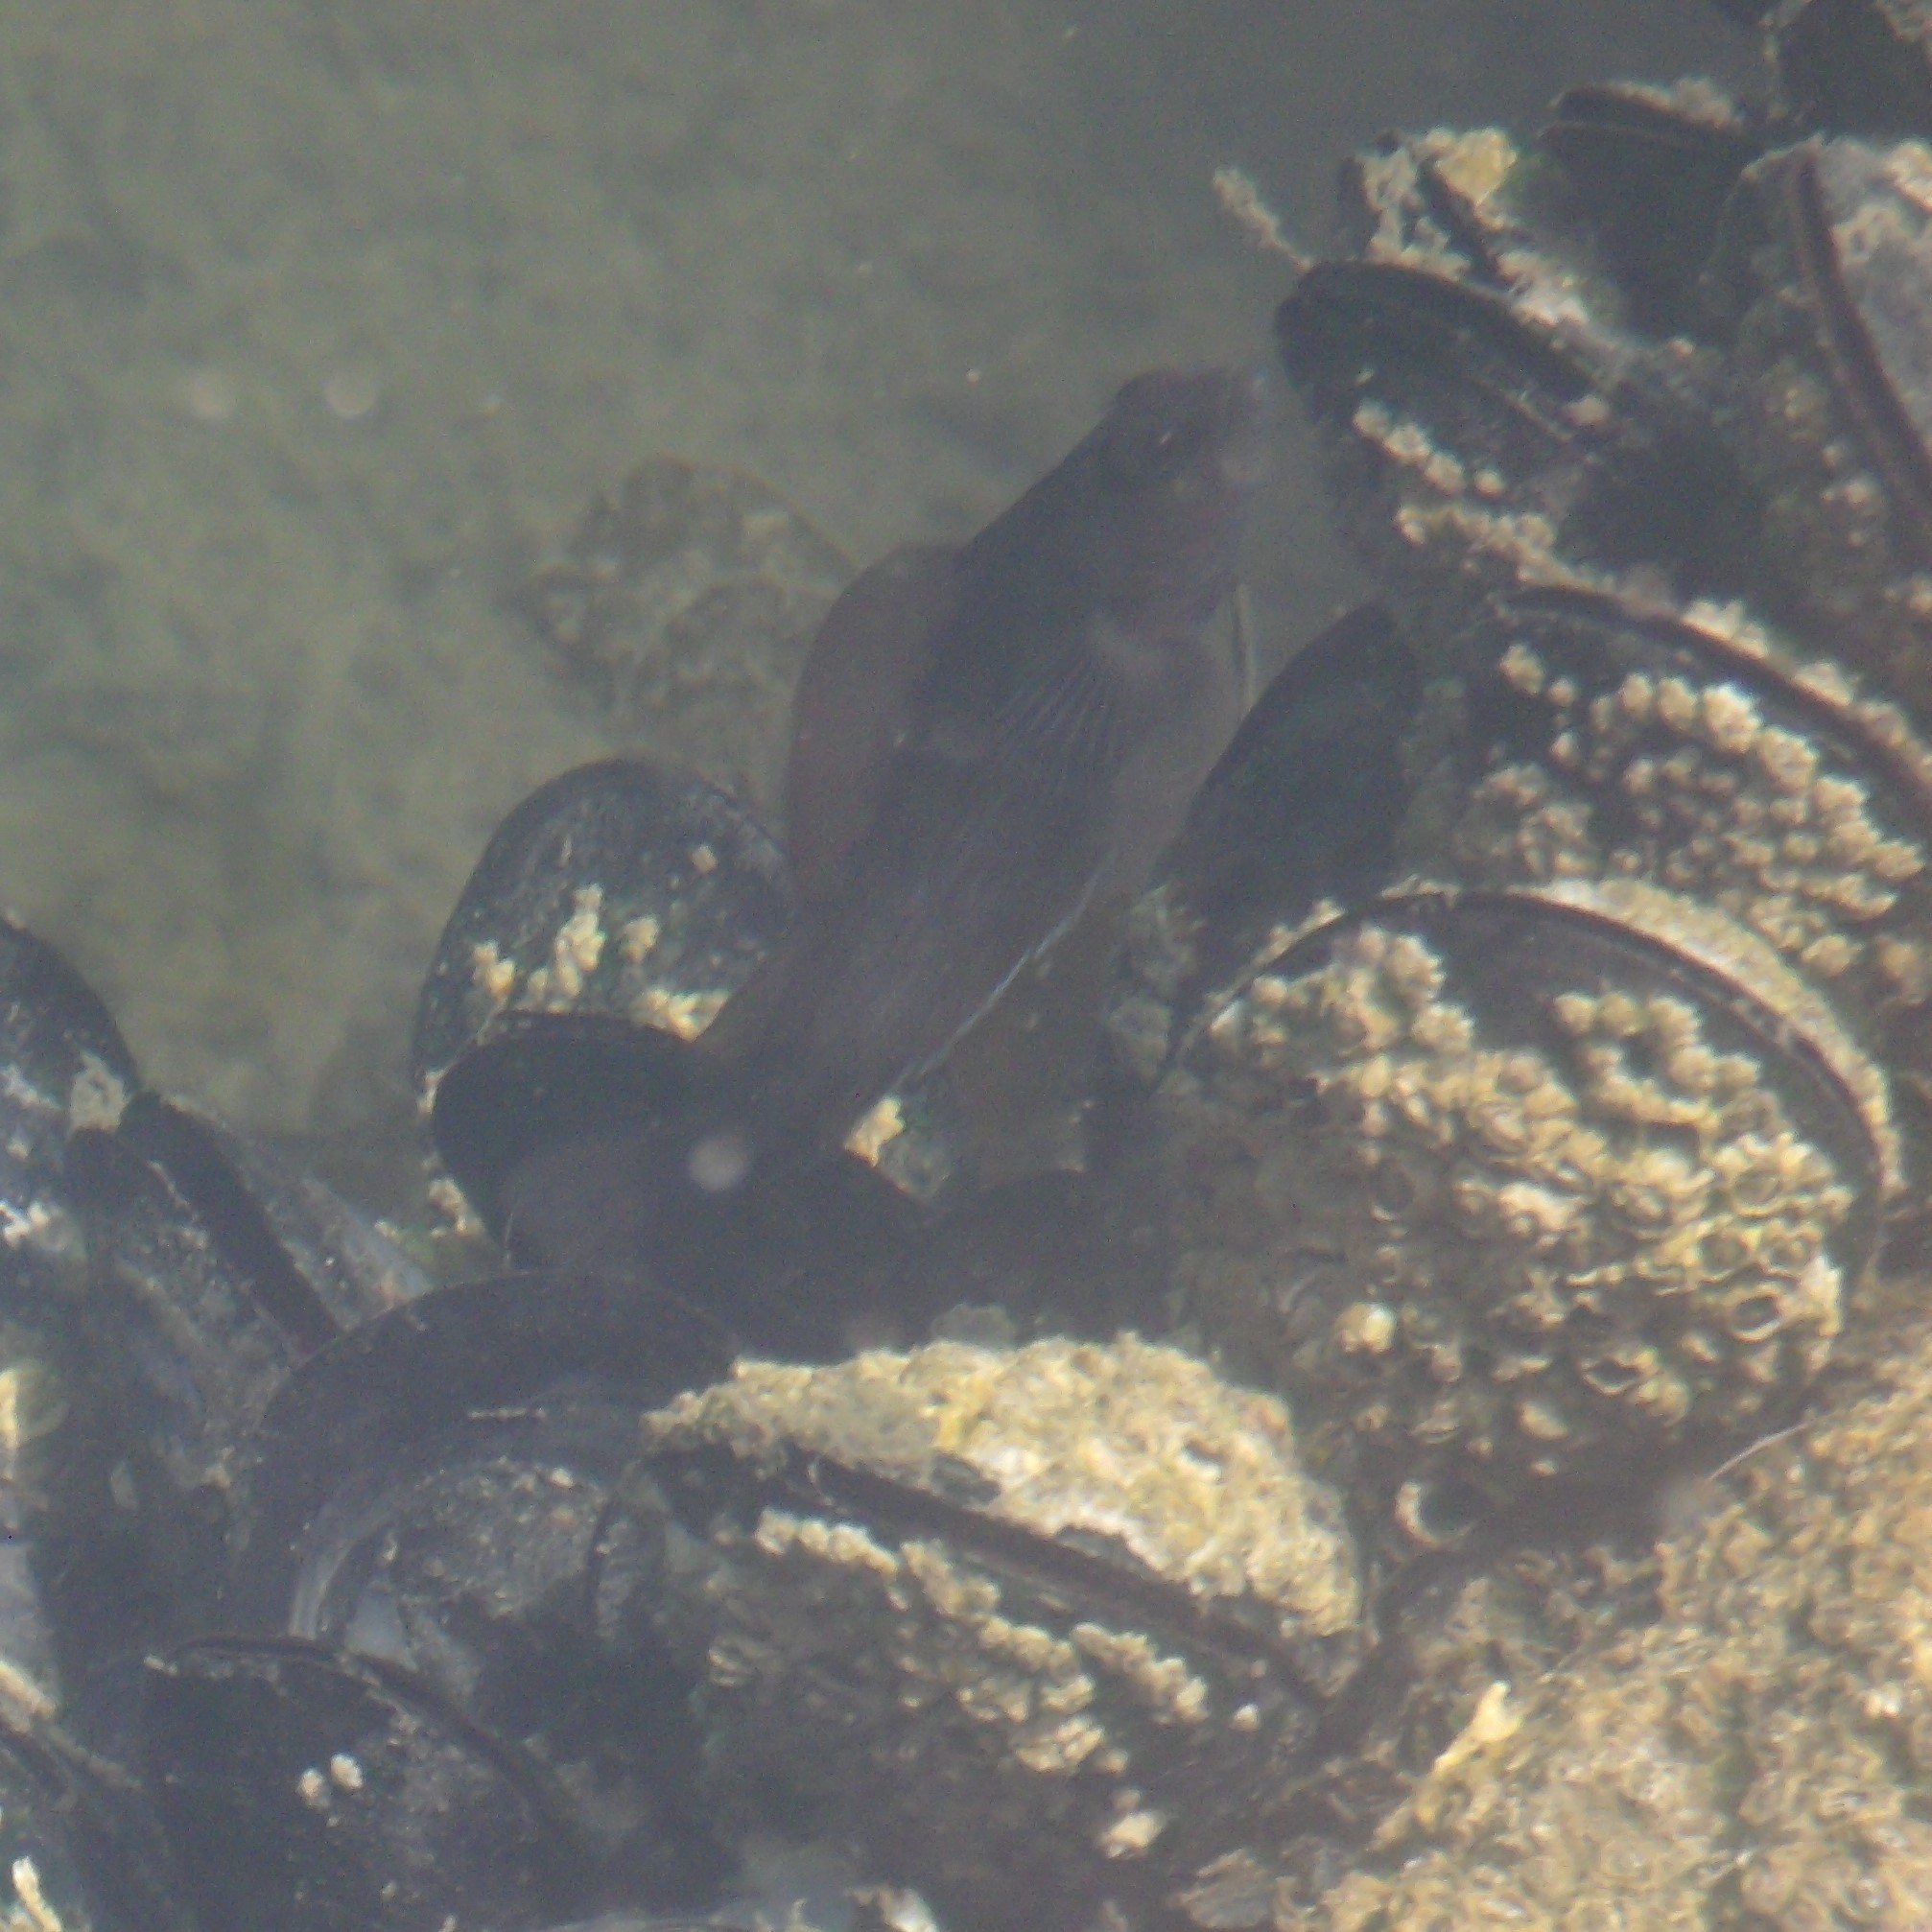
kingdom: Animalia
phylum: Chordata
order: Perciformes
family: Tripterygiidae
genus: Forsterygion
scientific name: Forsterygion lapillum
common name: Common triplefin
